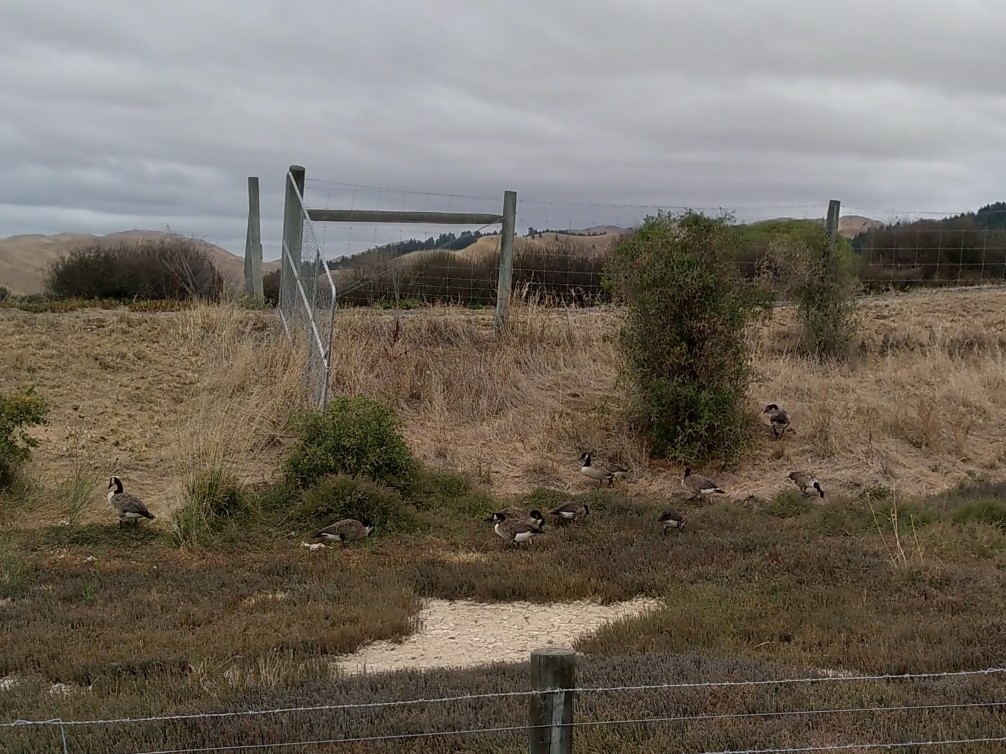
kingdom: Animalia
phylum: Chordata
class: Aves
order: Anseriformes
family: Anatidae
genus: Branta
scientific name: Branta canadensis
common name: Canada goose
